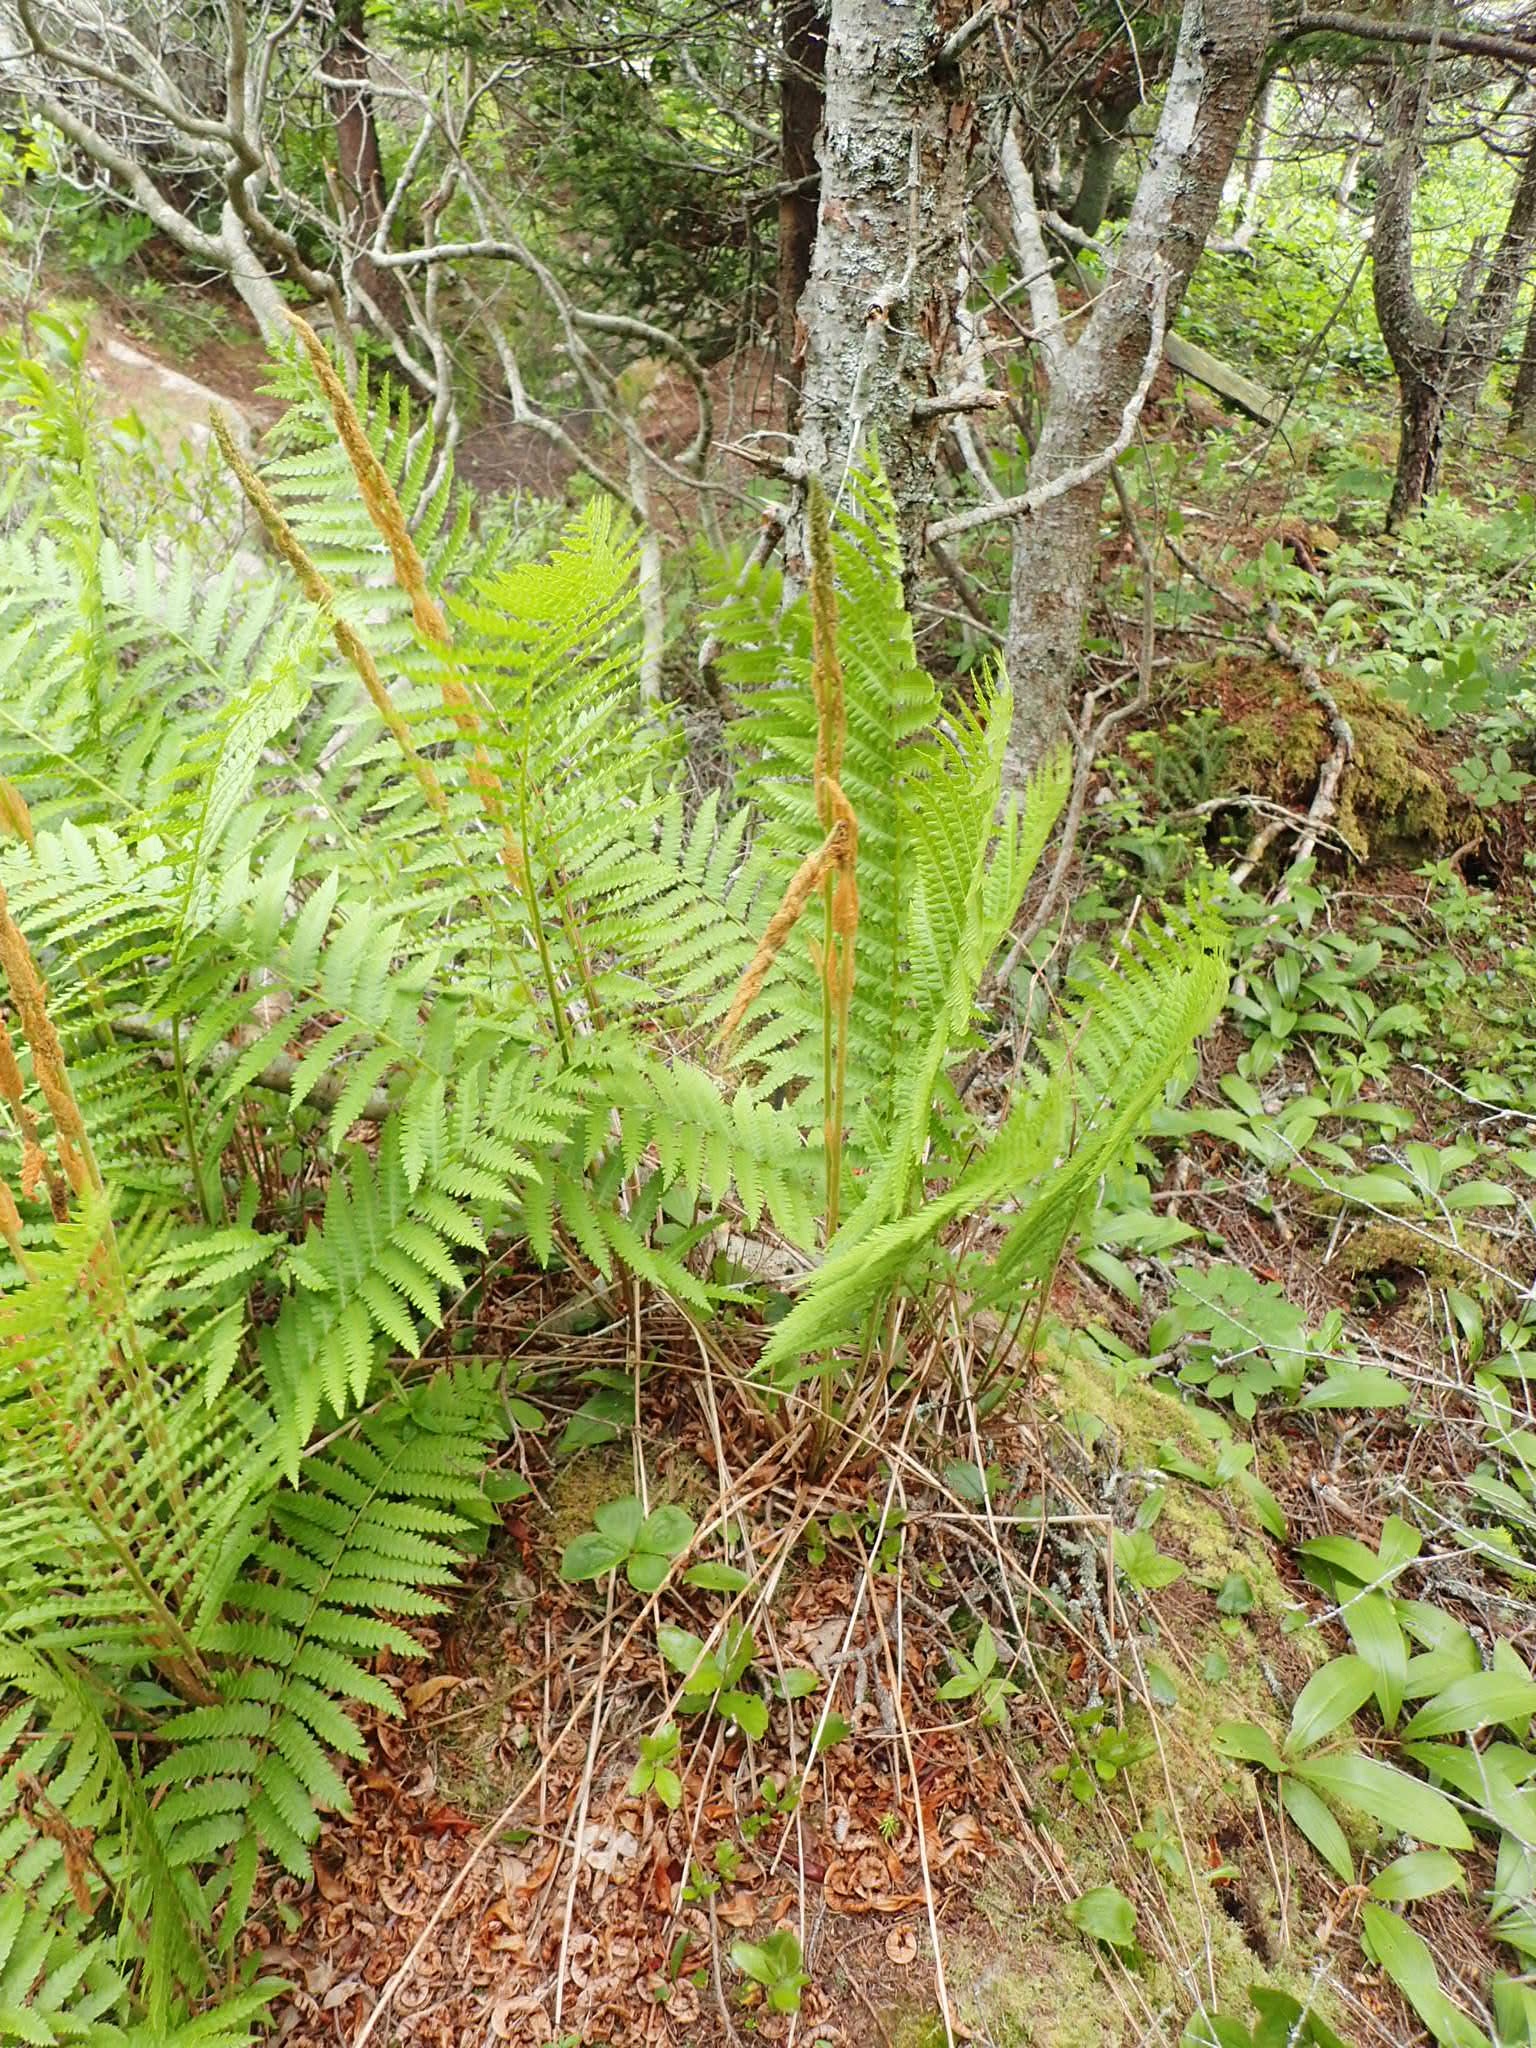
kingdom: Plantae
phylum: Tracheophyta
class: Polypodiopsida
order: Osmundales
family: Osmundaceae
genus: Osmundastrum
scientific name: Osmundastrum cinnamomeum
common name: Cinnamon fern
